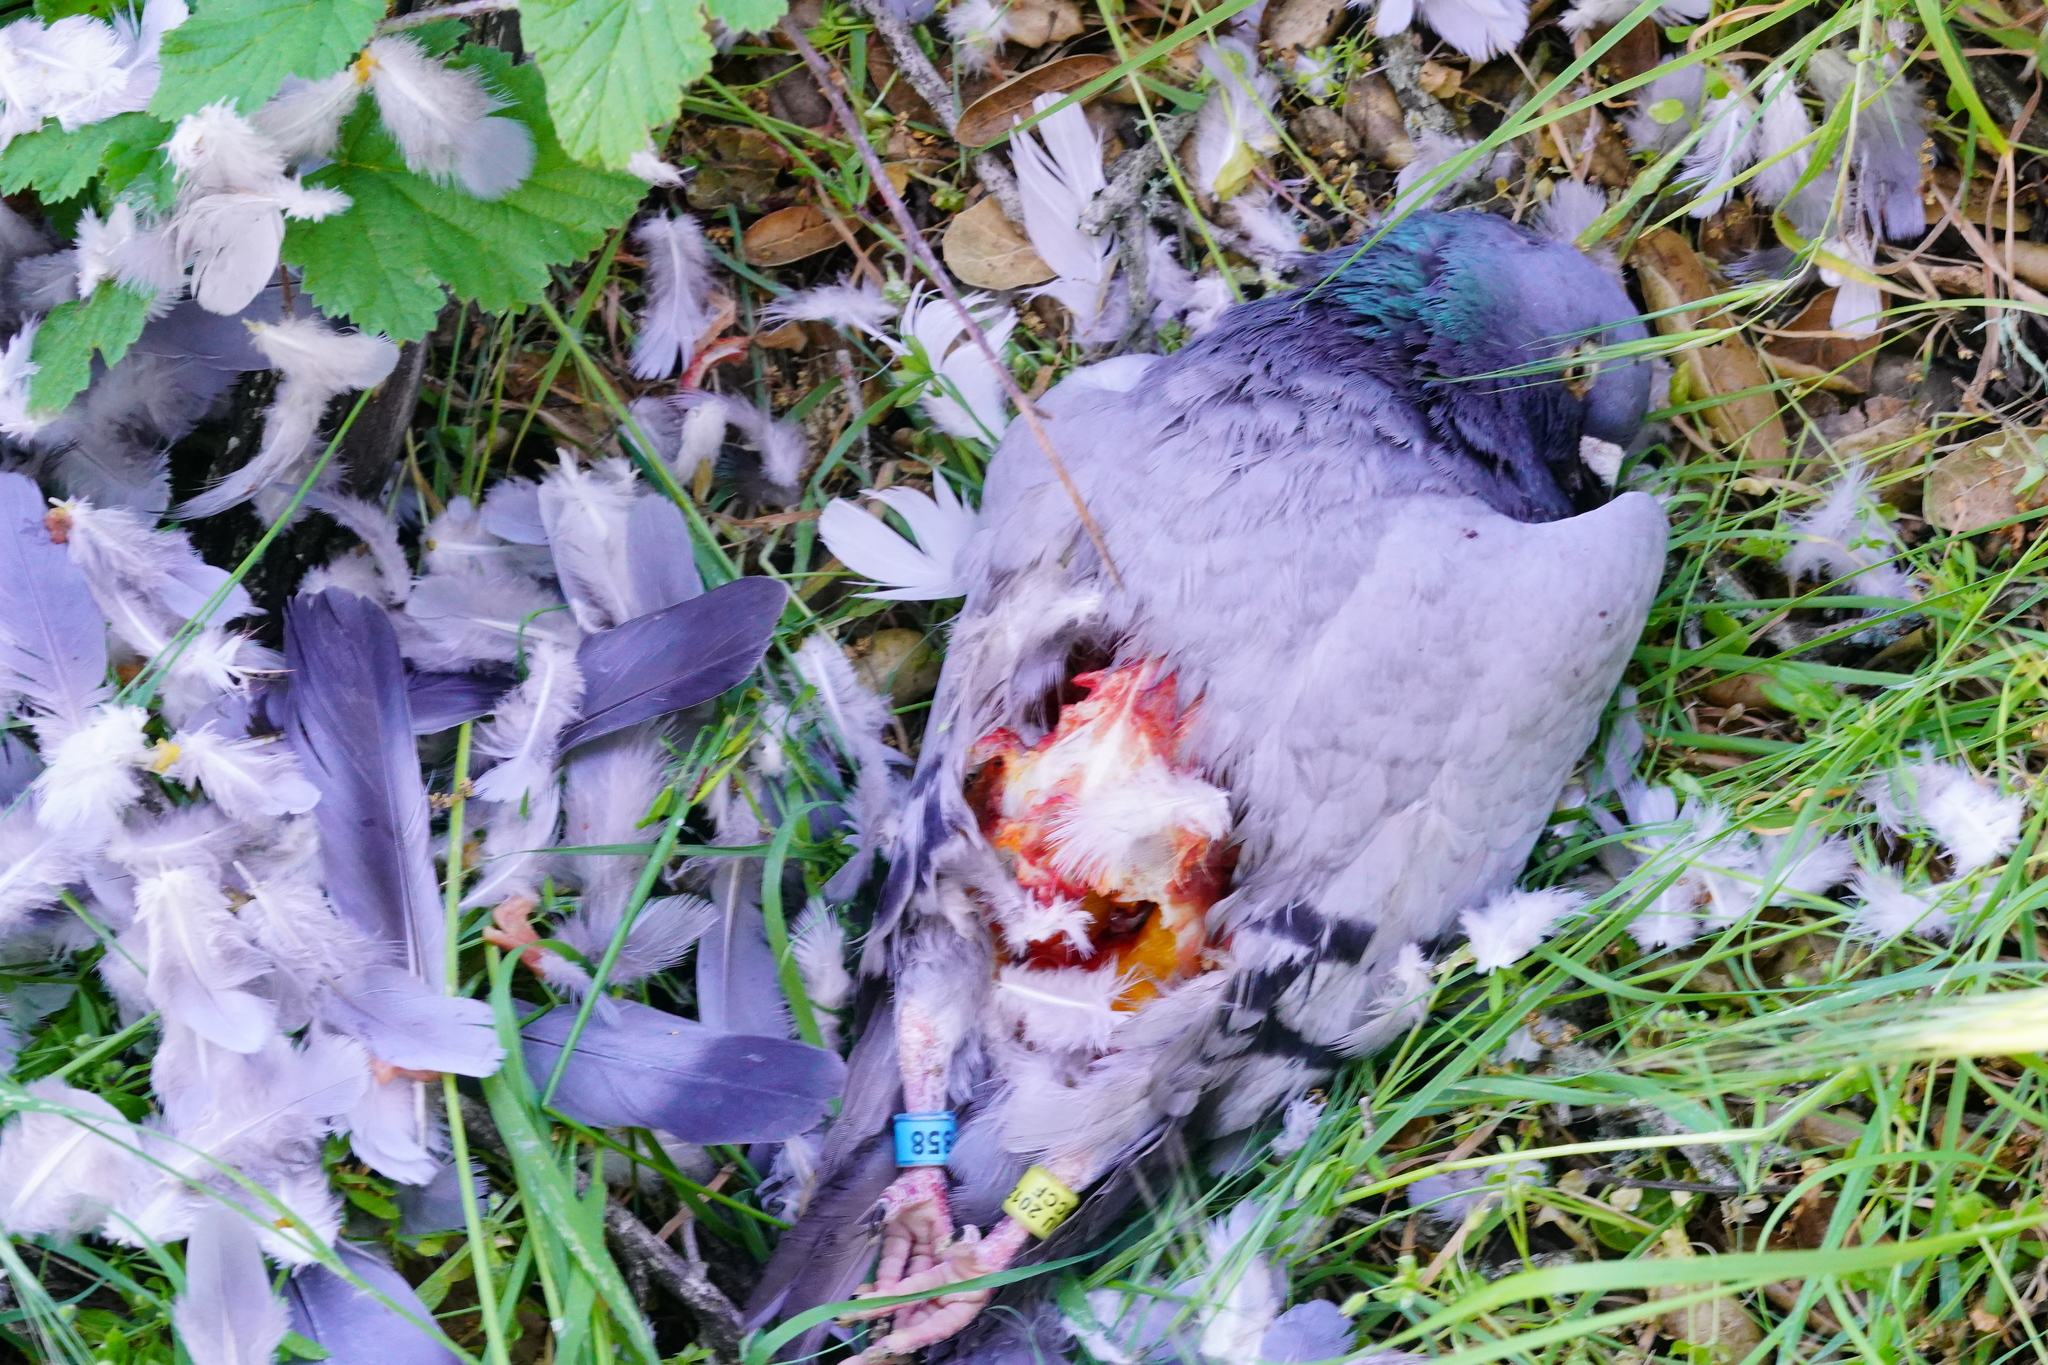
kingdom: Animalia
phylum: Chordata
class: Aves
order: Columbiformes
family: Columbidae
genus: Columba
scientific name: Columba livia
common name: Rock pigeon
